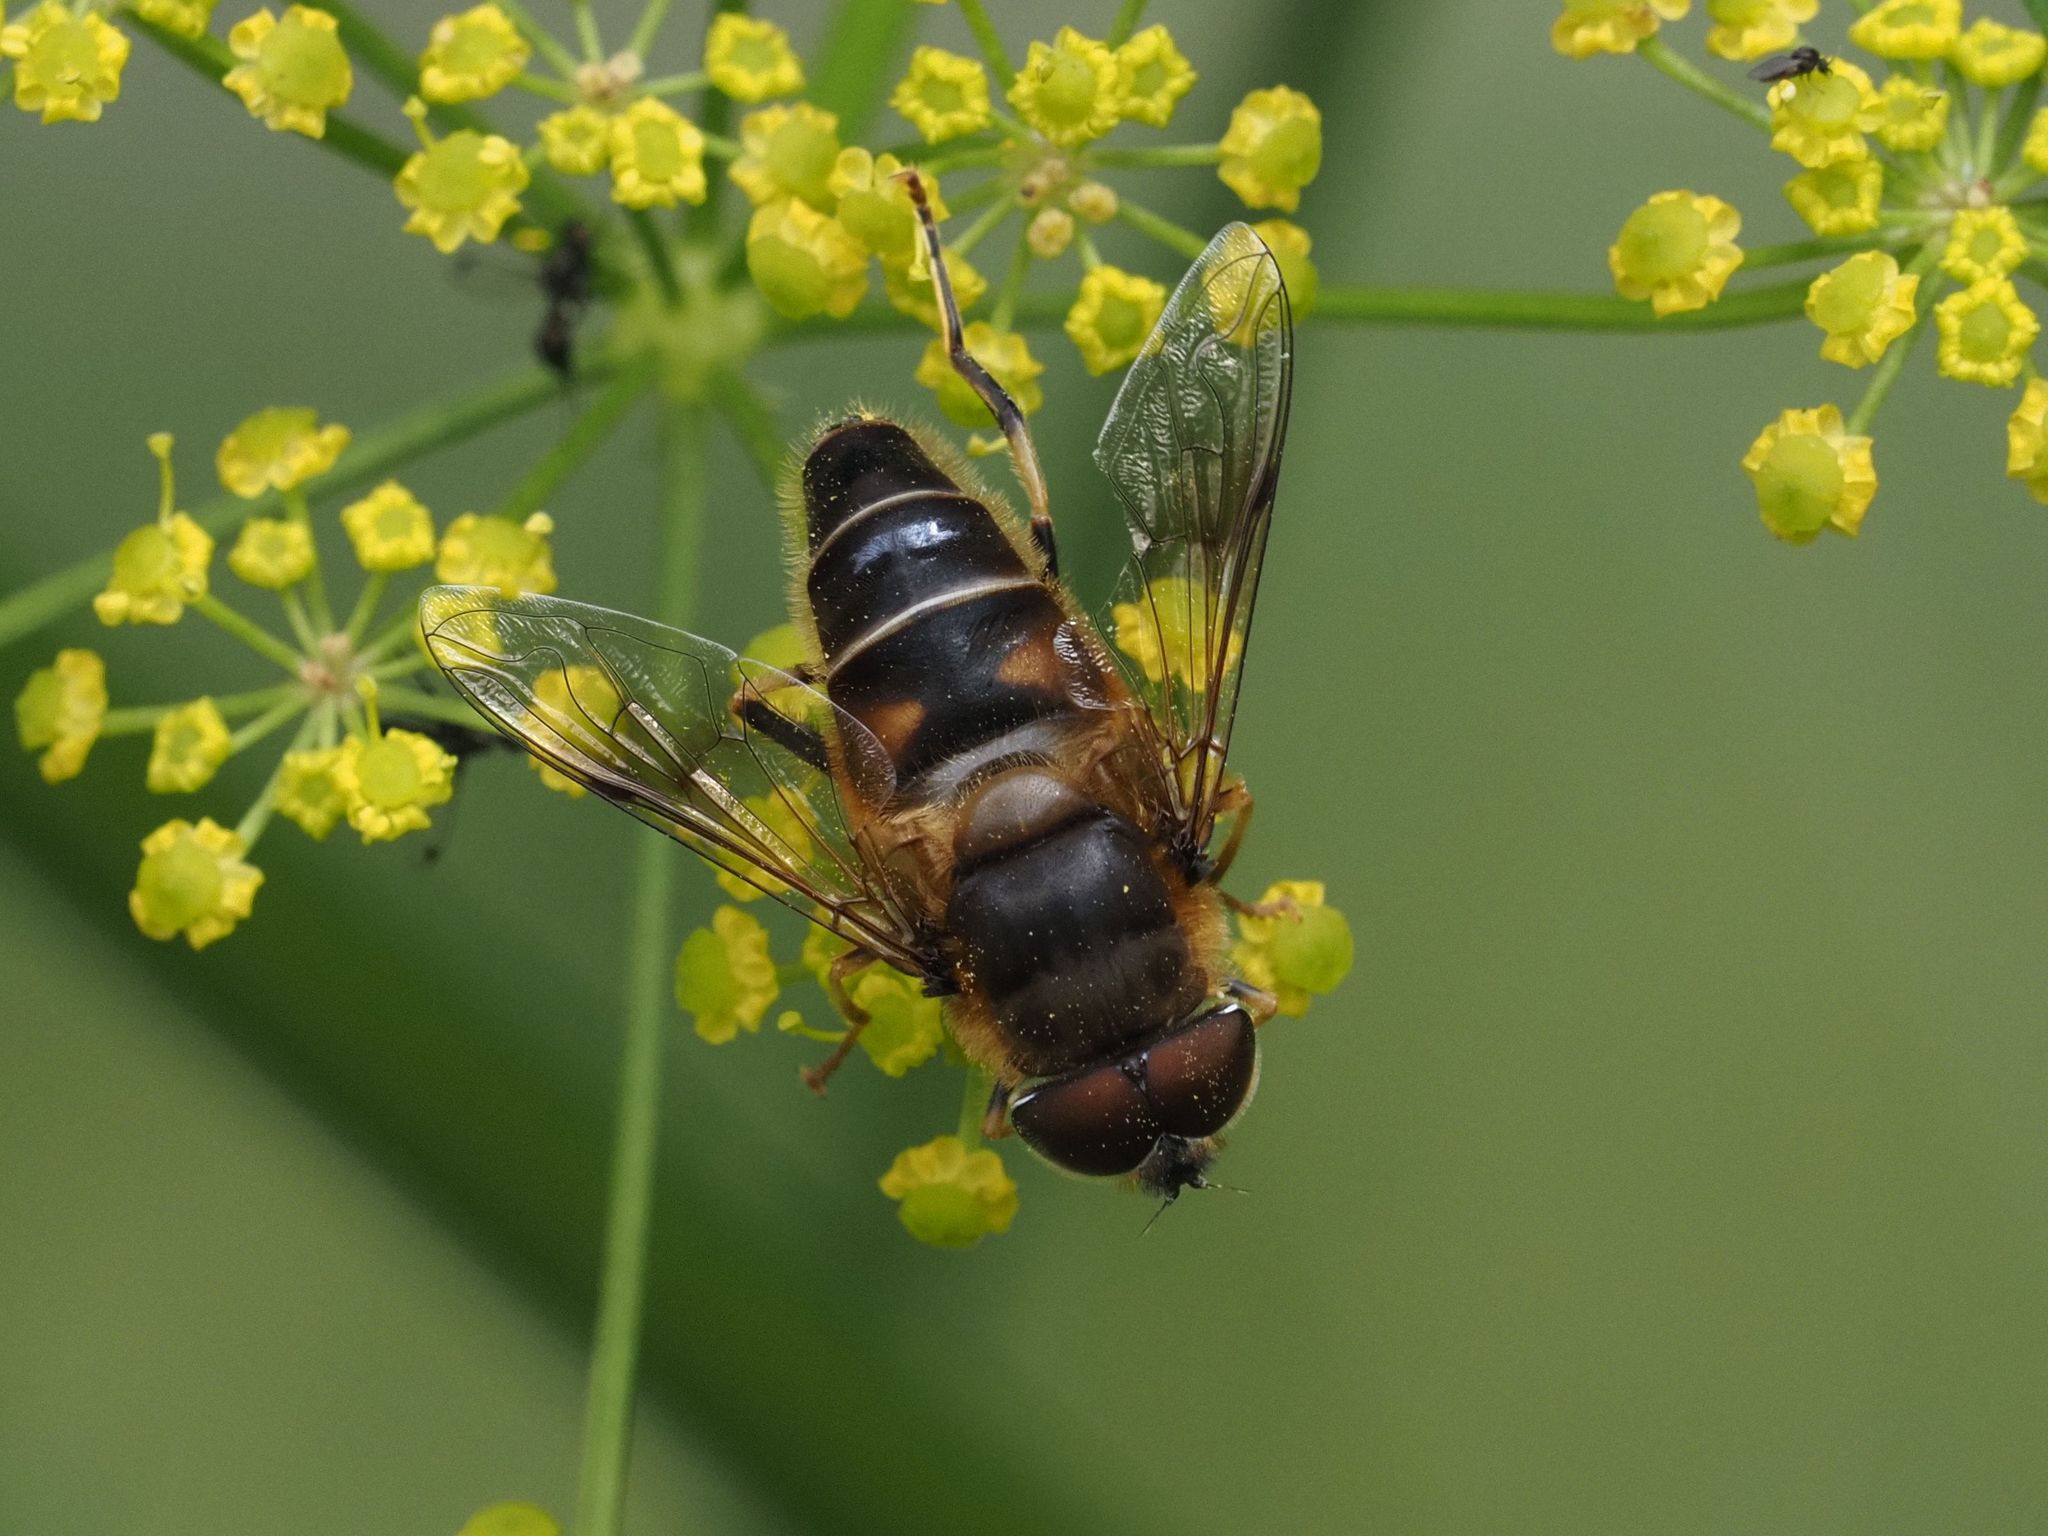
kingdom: Animalia
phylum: Arthropoda
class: Insecta
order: Diptera
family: Syrphidae
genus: Eristalis
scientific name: Eristalis pertinax
